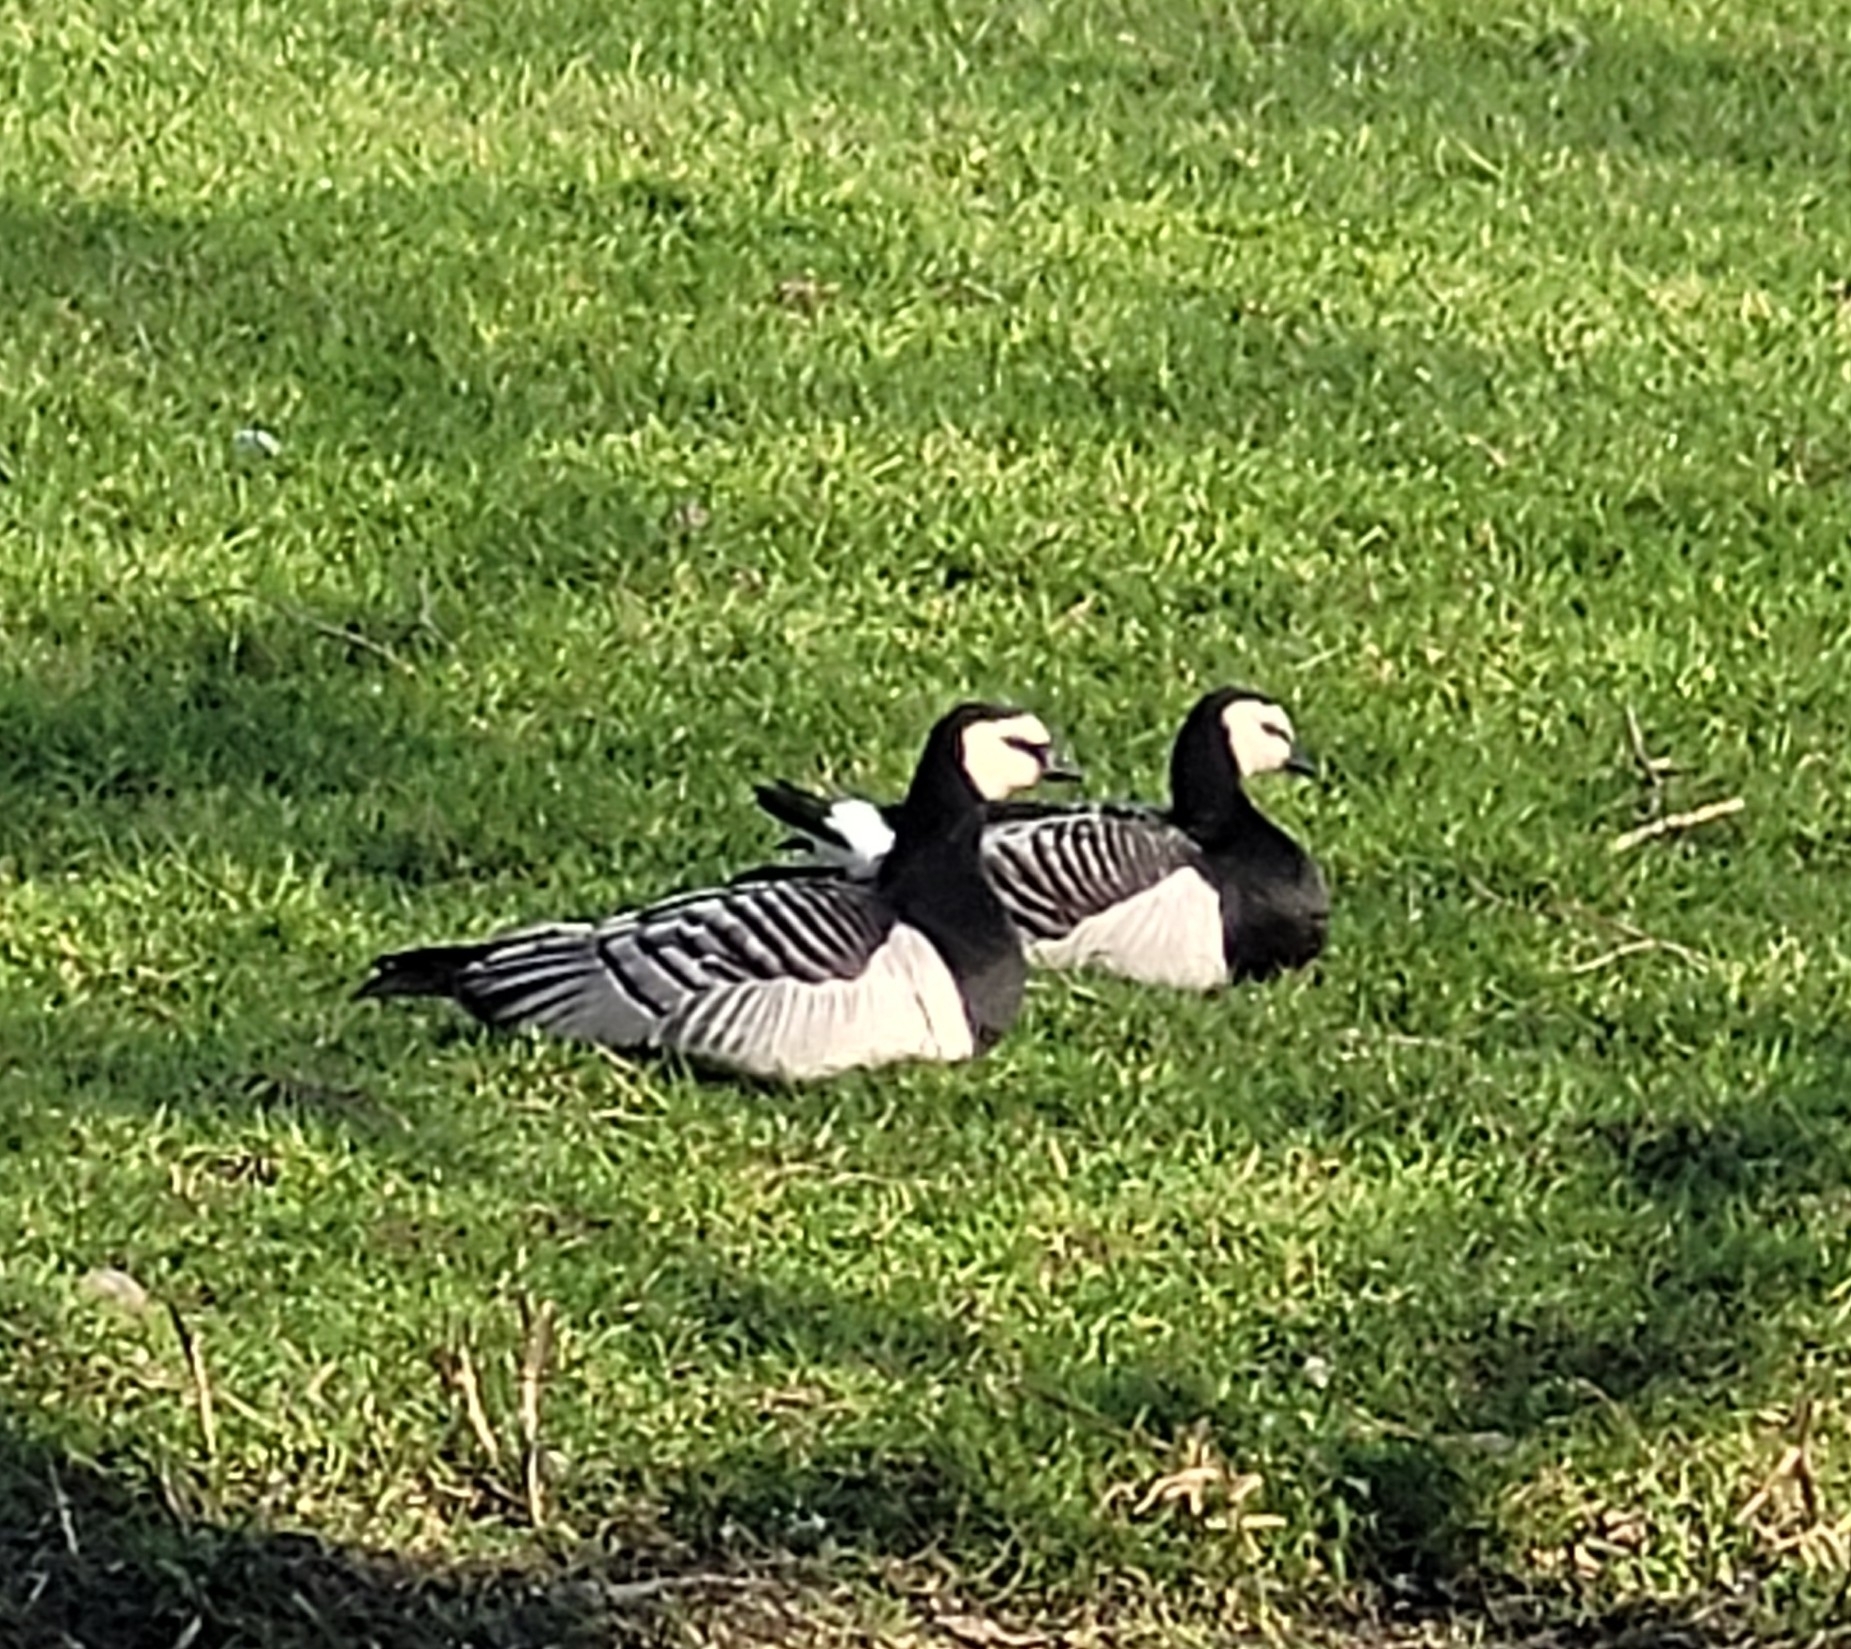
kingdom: Animalia
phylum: Chordata
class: Aves
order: Anseriformes
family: Anatidae
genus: Branta
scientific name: Branta leucopsis
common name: Barnacle goose
